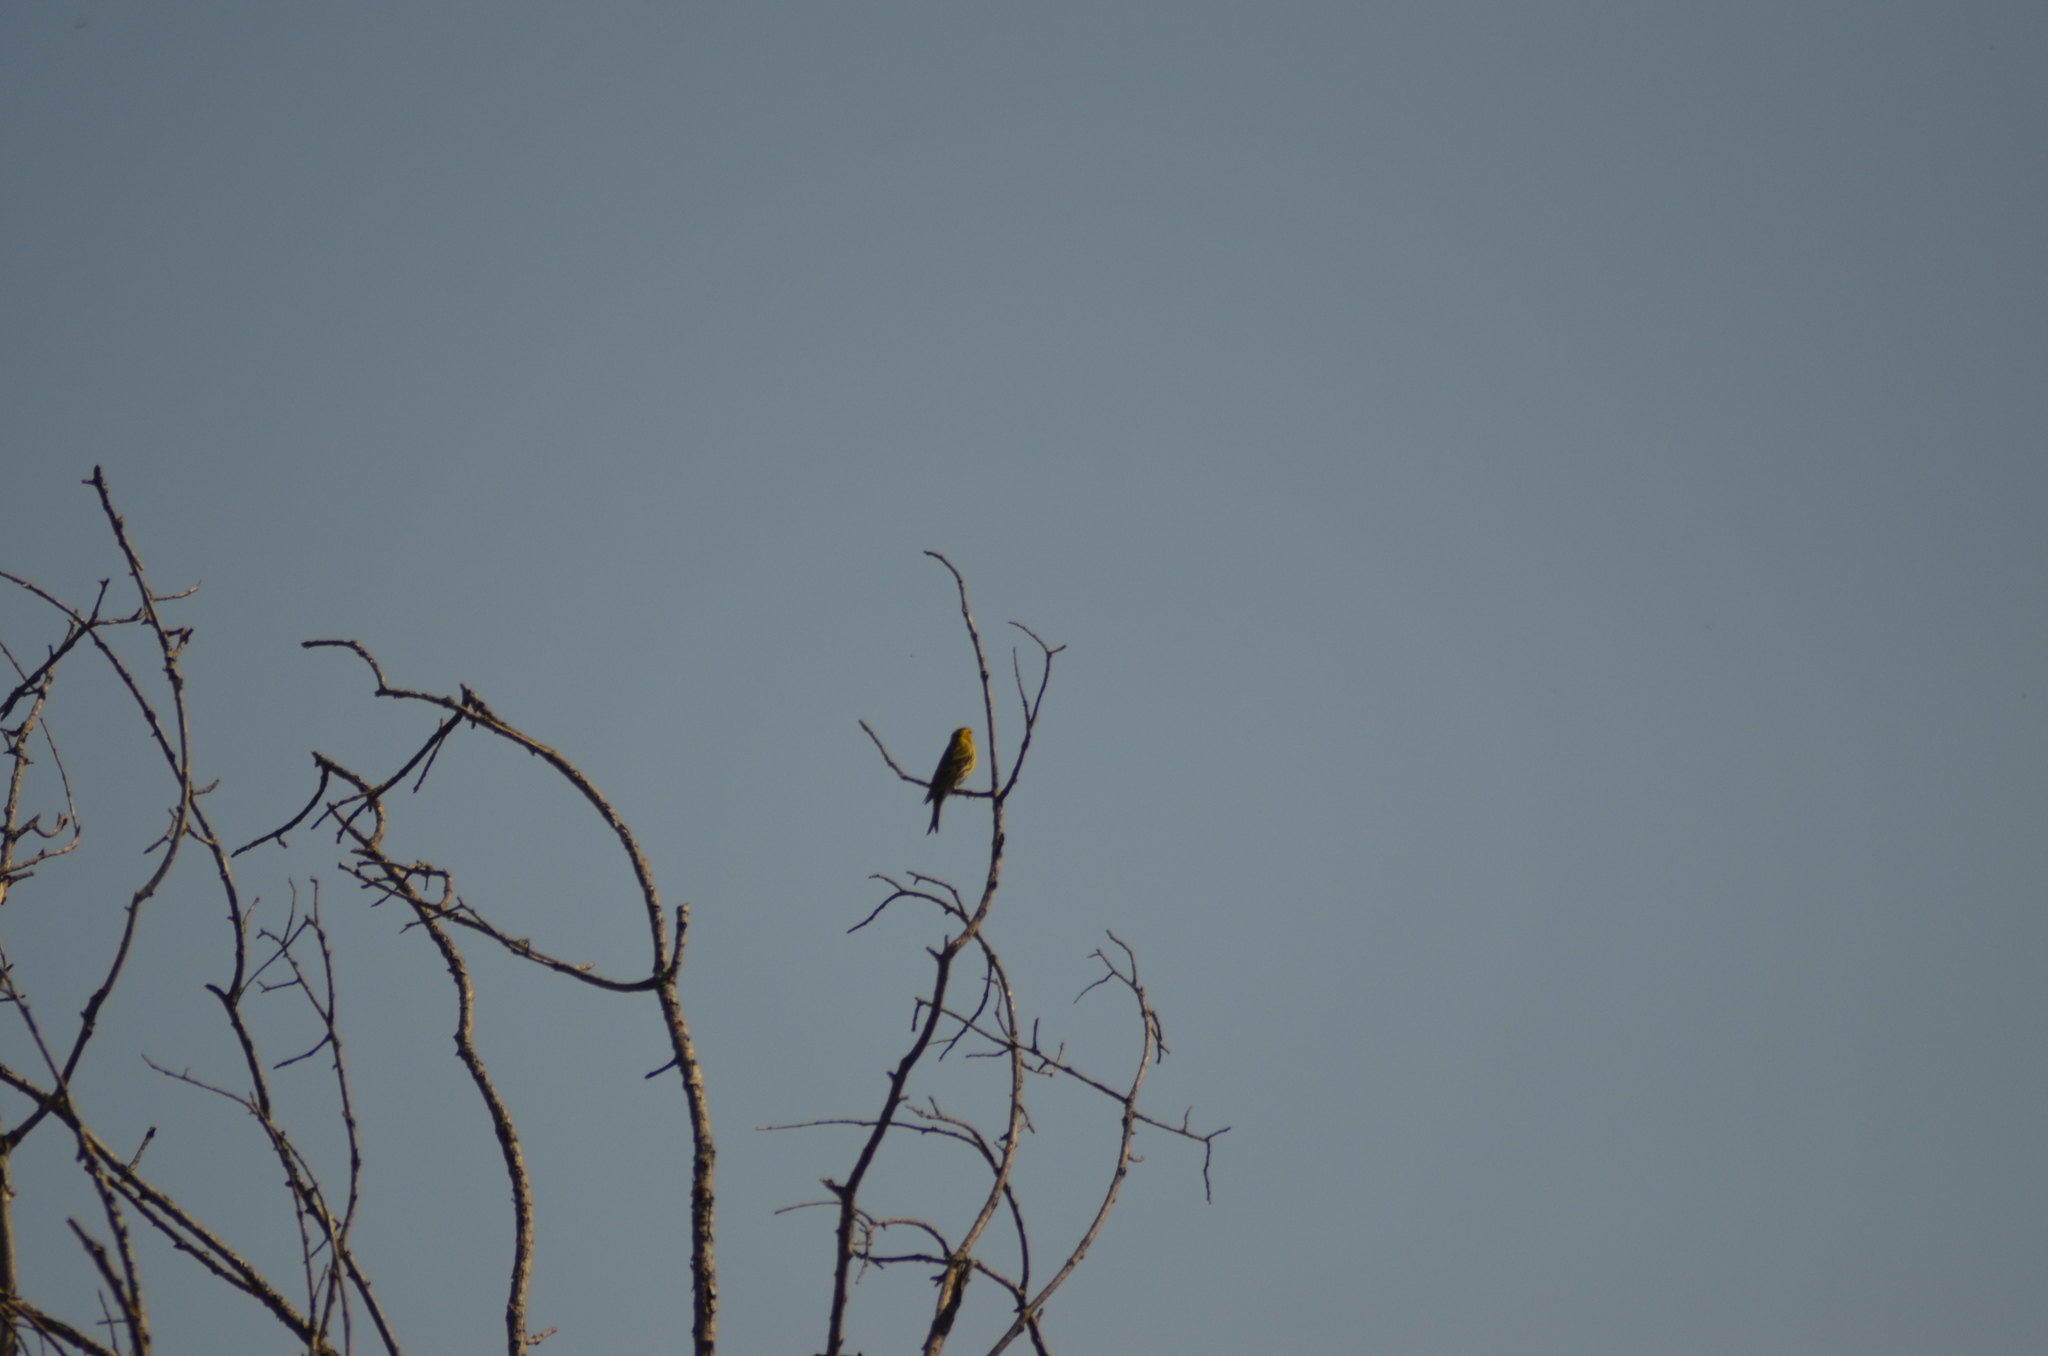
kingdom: Animalia
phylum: Chordata
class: Aves
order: Passeriformes
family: Fringillidae
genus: Serinus
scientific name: Serinus serinus
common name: European serin
